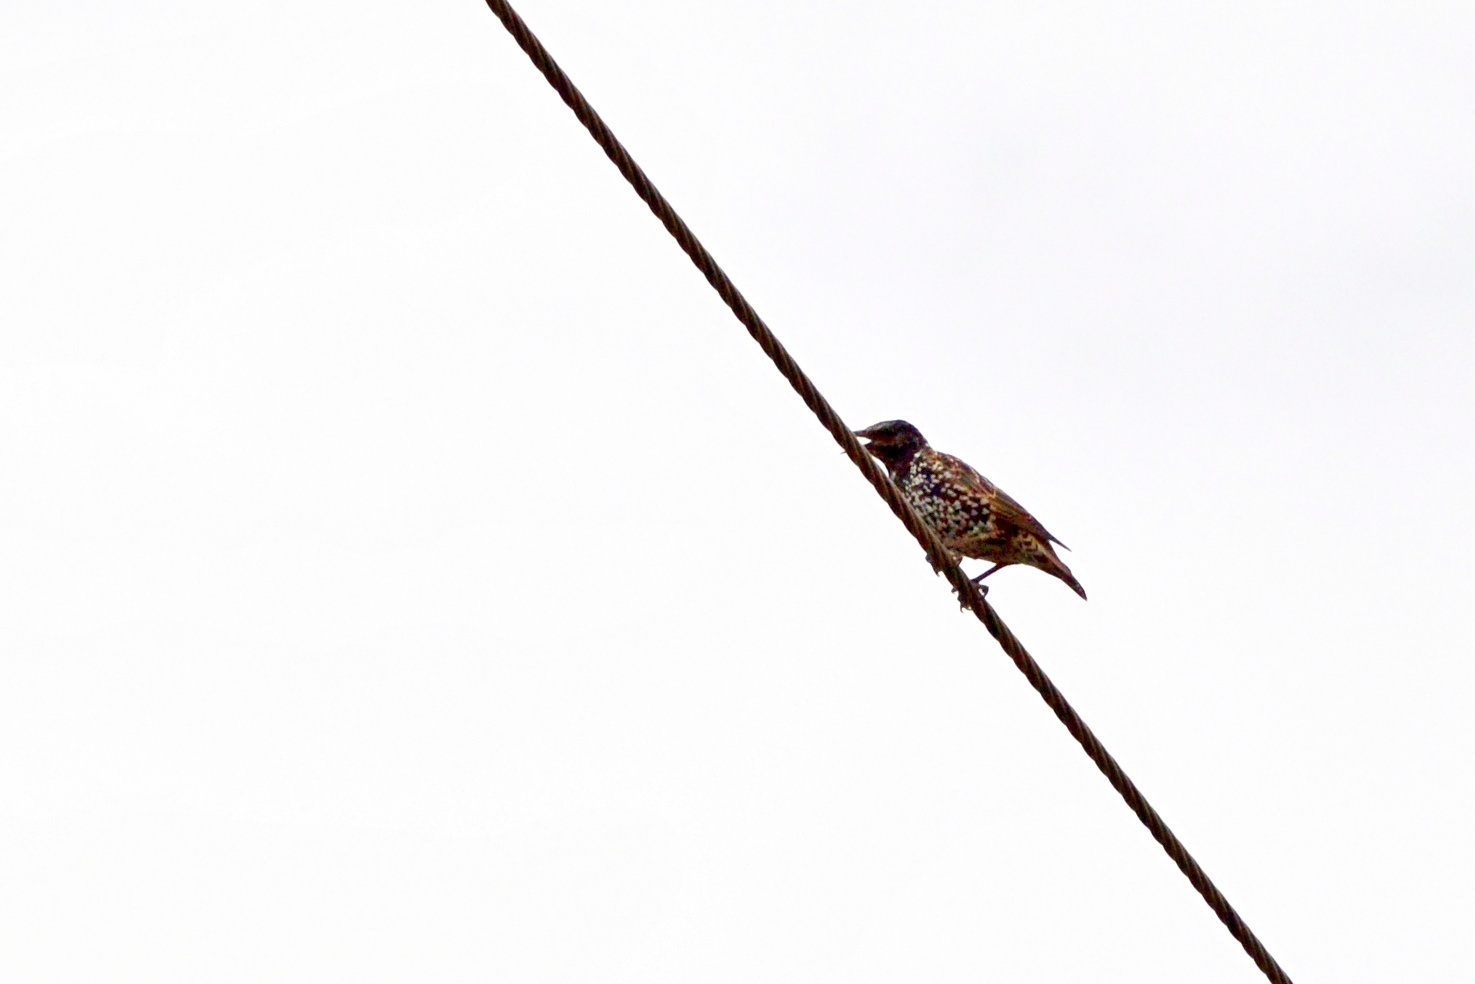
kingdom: Animalia
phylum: Chordata
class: Aves
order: Passeriformes
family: Sturnidae
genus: Sturnus
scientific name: Sturnus vulgaris
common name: Common starling
